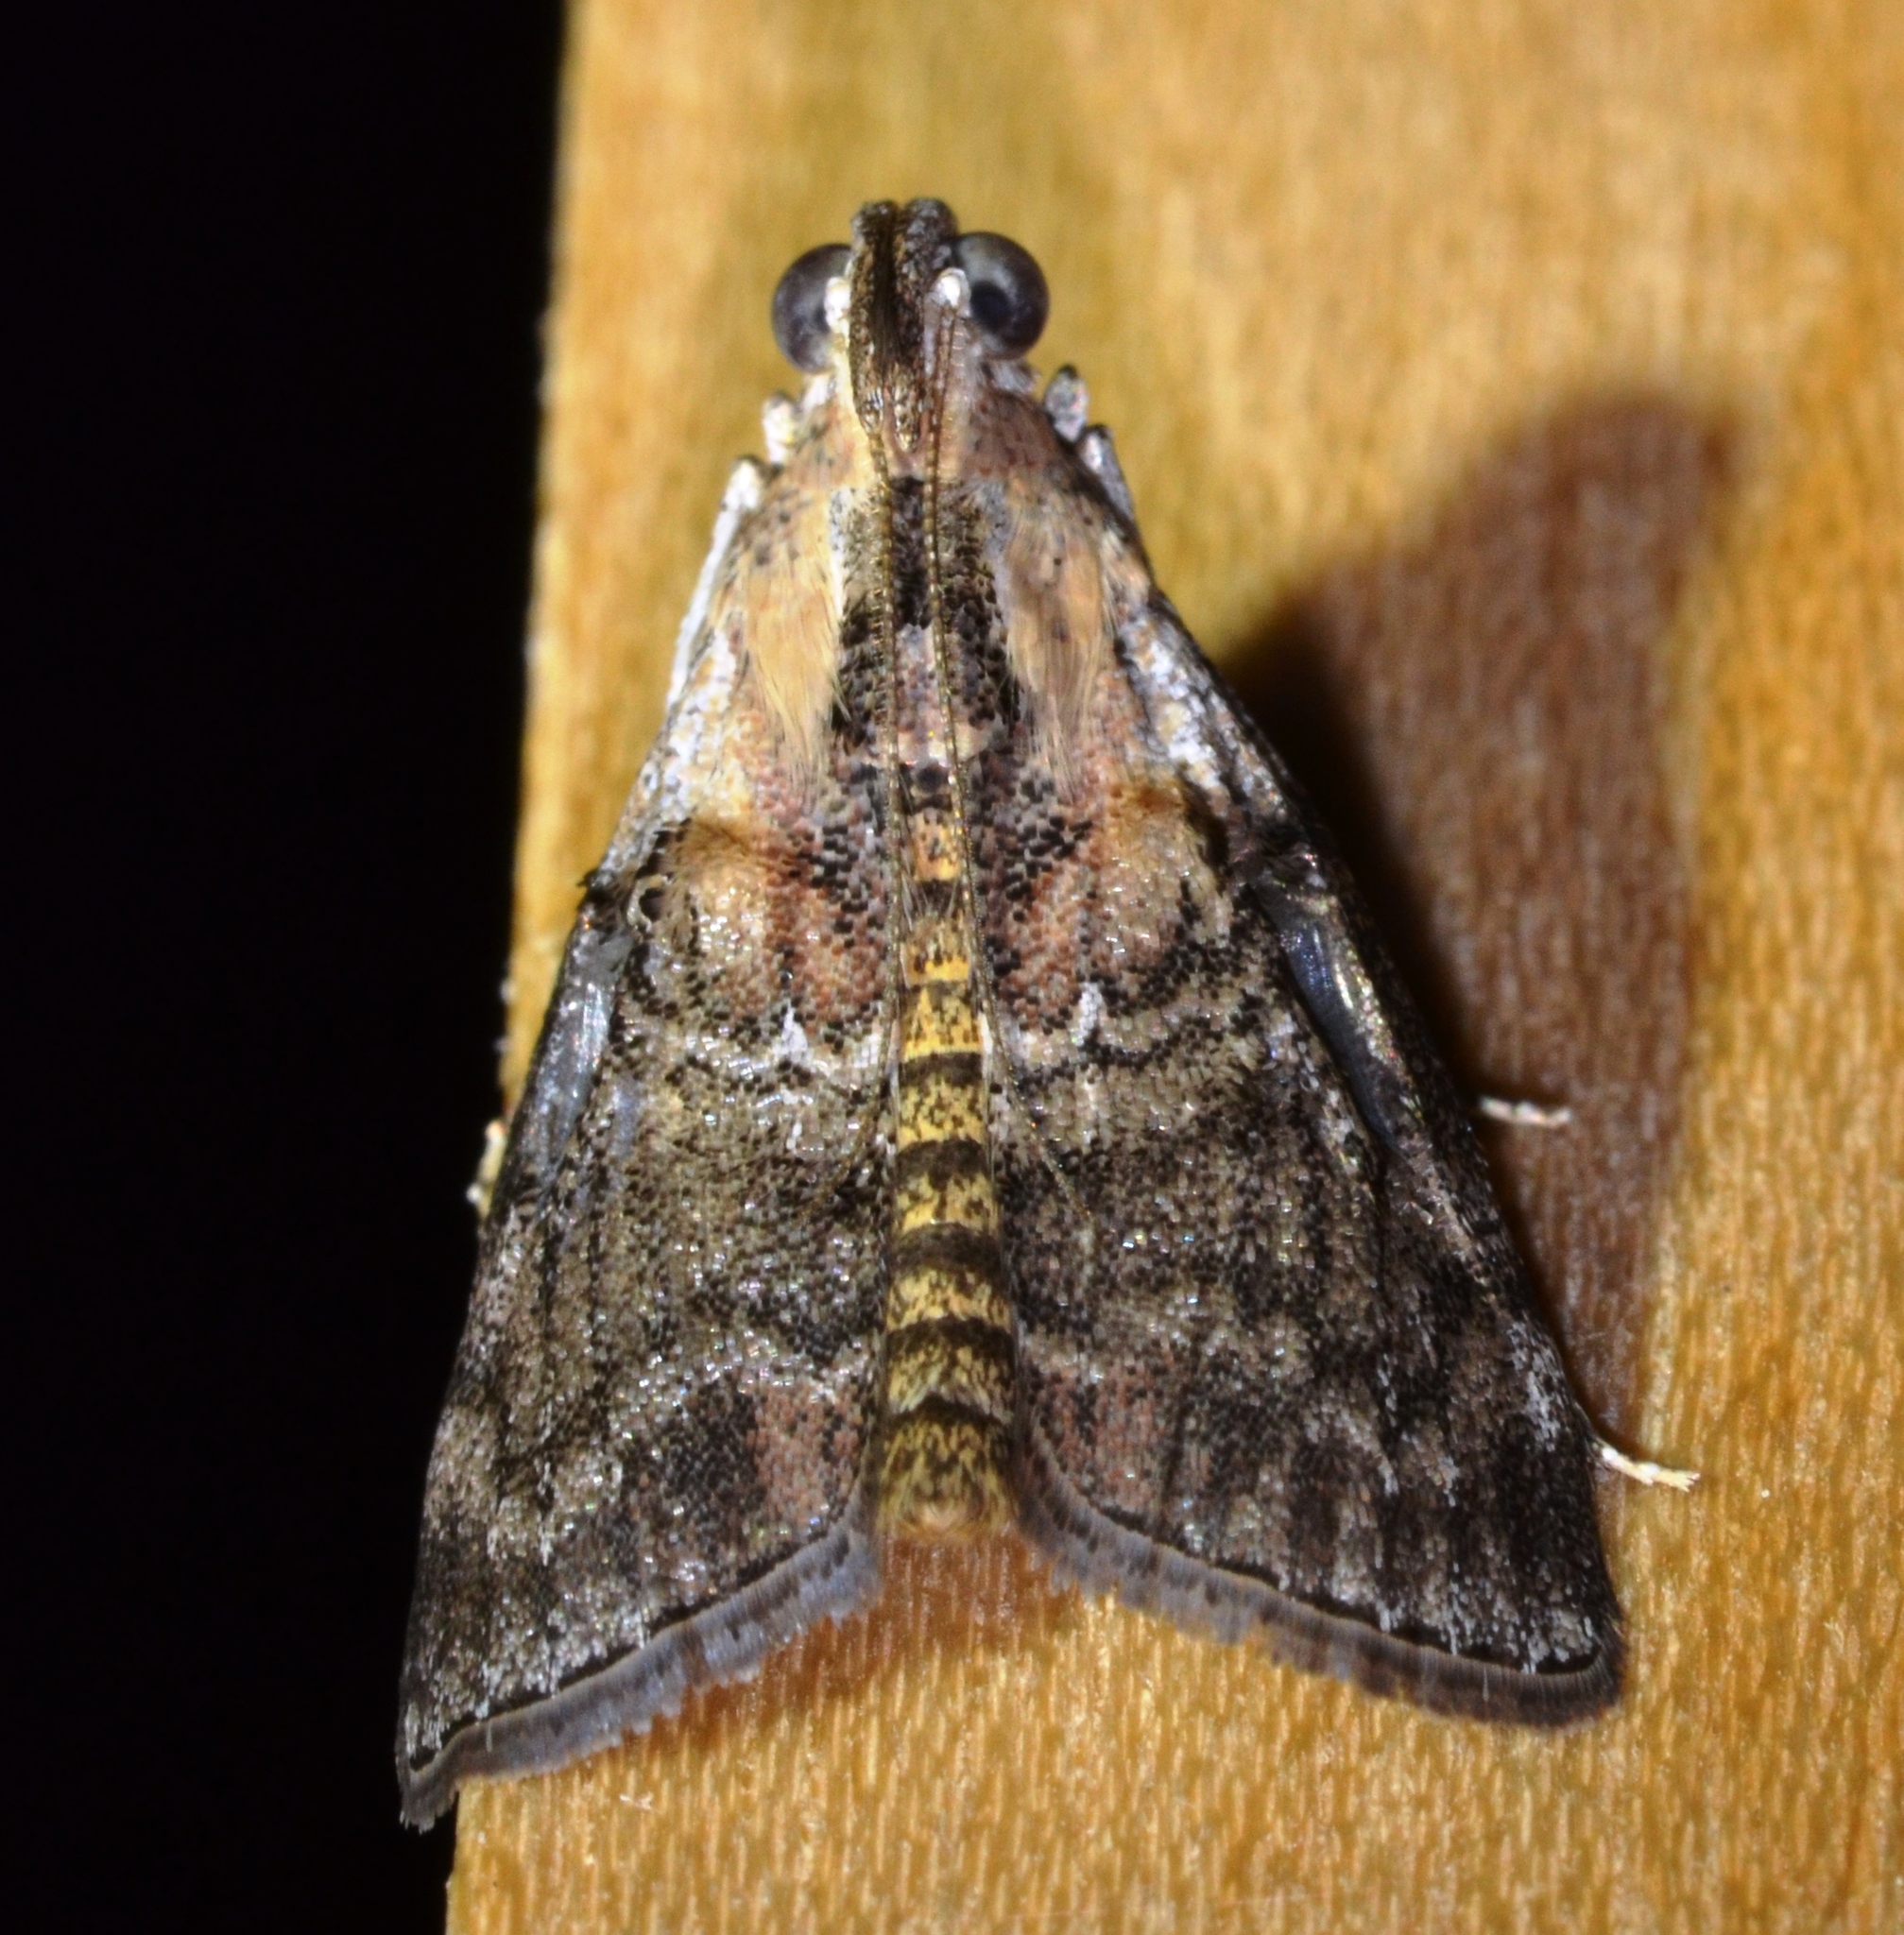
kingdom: Animalia
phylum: Arthropoda
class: Insecta
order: Lepidoptera
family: Pyralidae
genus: Pococera
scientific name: Pococera expandens
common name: Striped oak webworm moth
